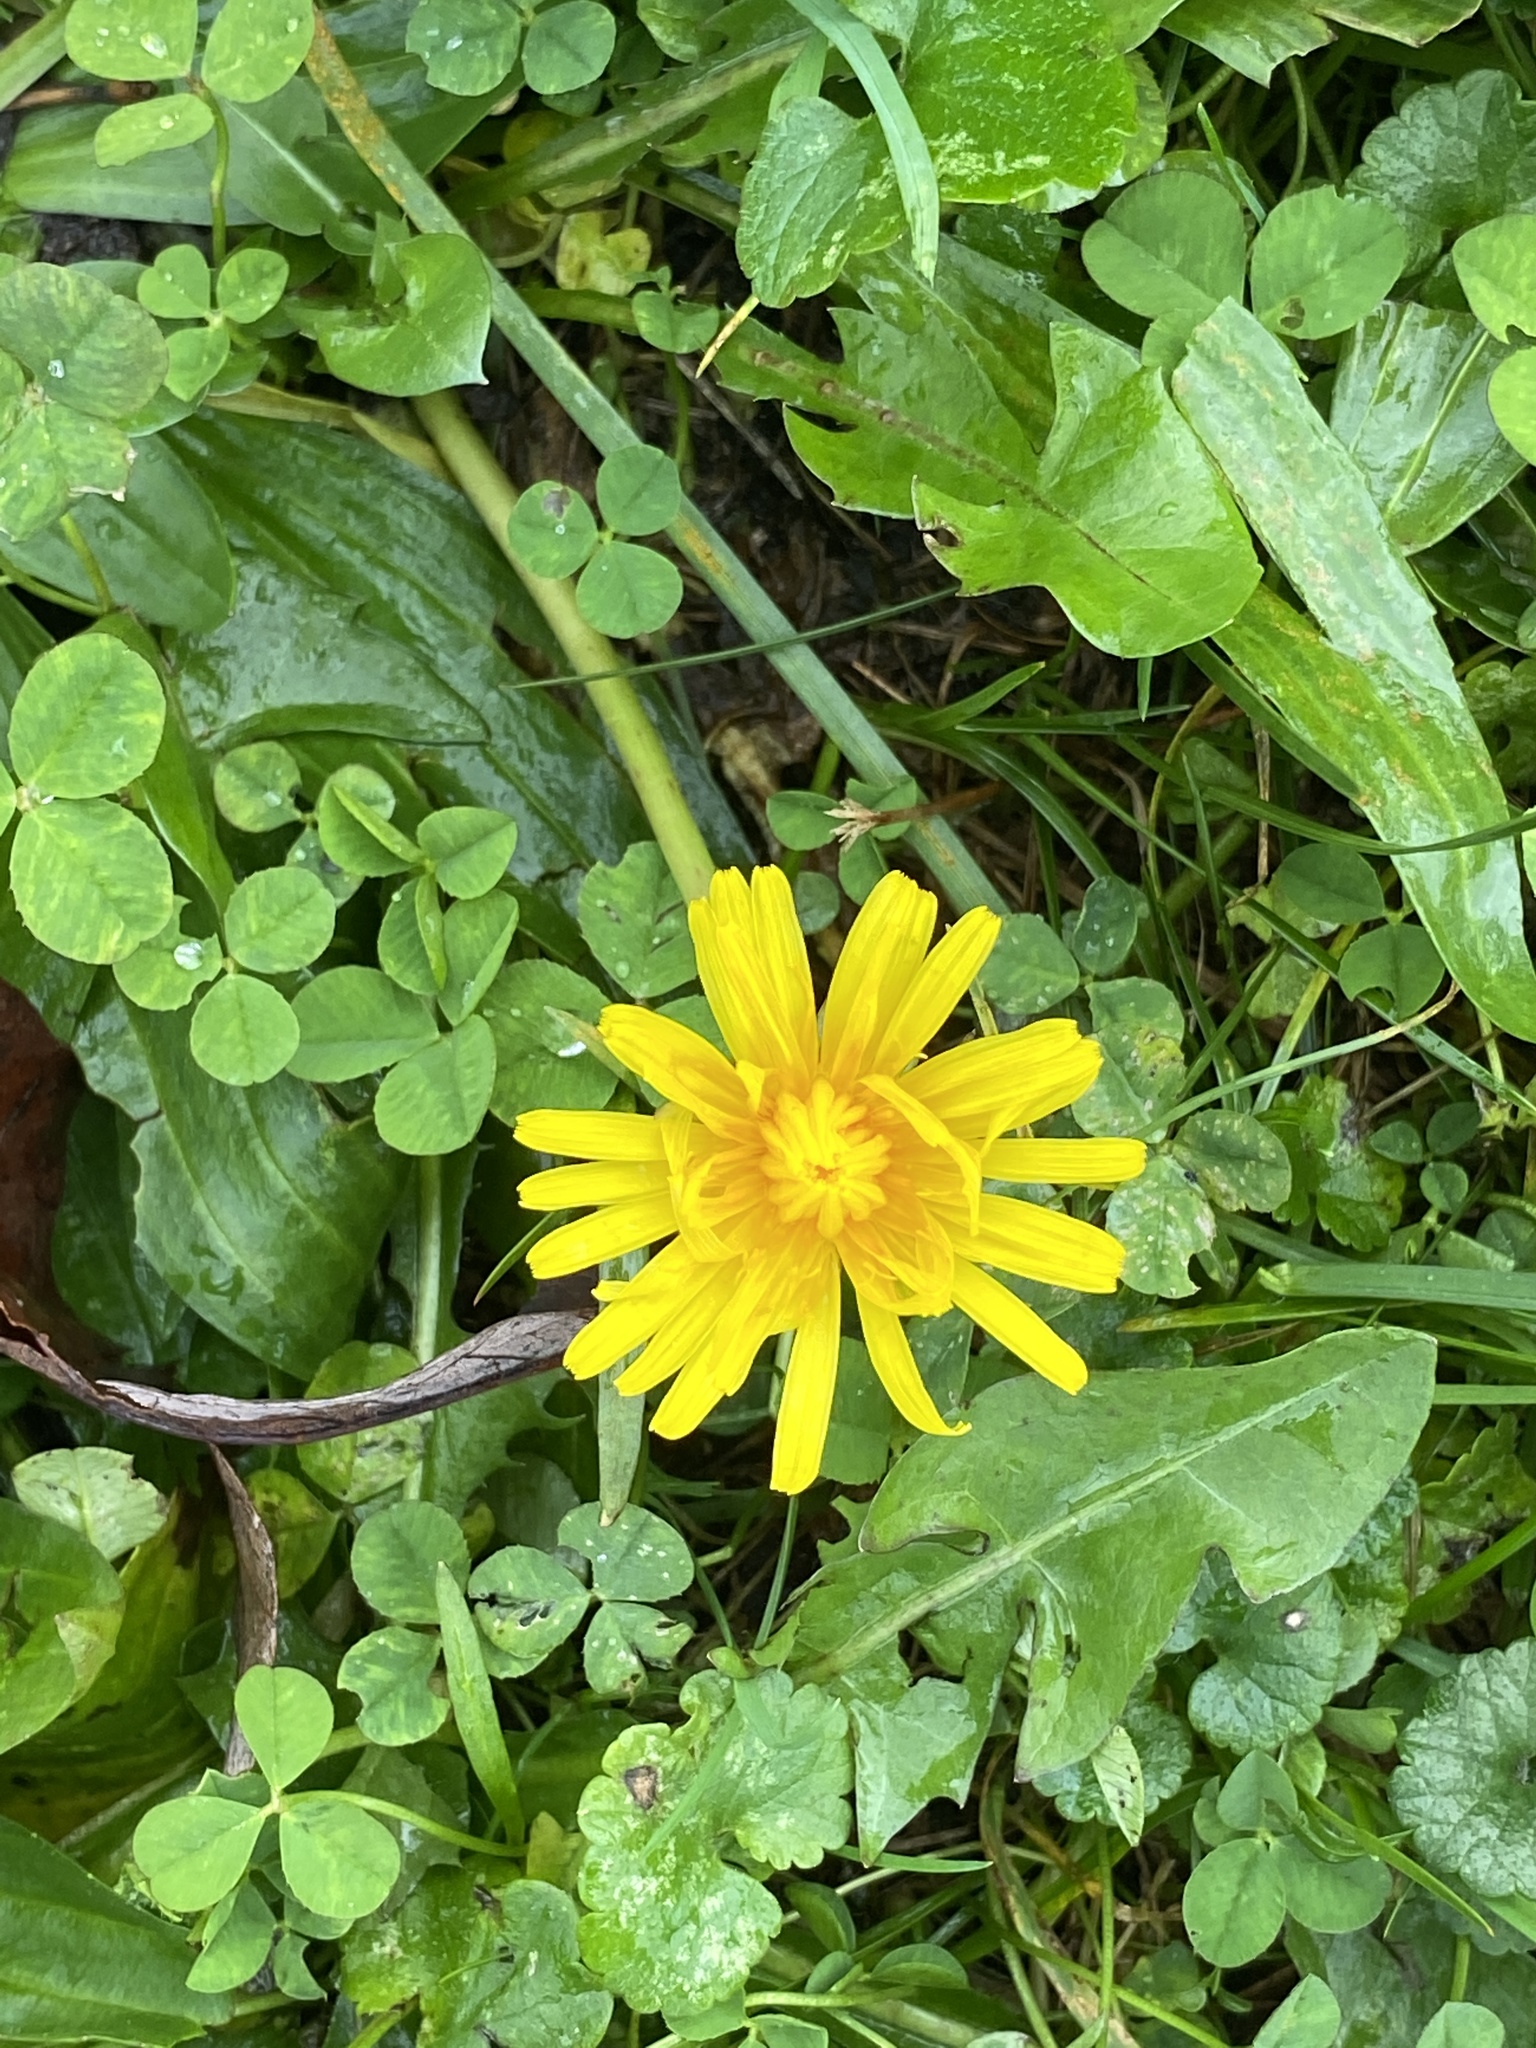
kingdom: Plantae
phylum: Tracheophyta
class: Magnoliopsida
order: Asterales
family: Asteraceae
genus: Taraxacum
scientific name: Taraxacum officinale
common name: Common dandelion
